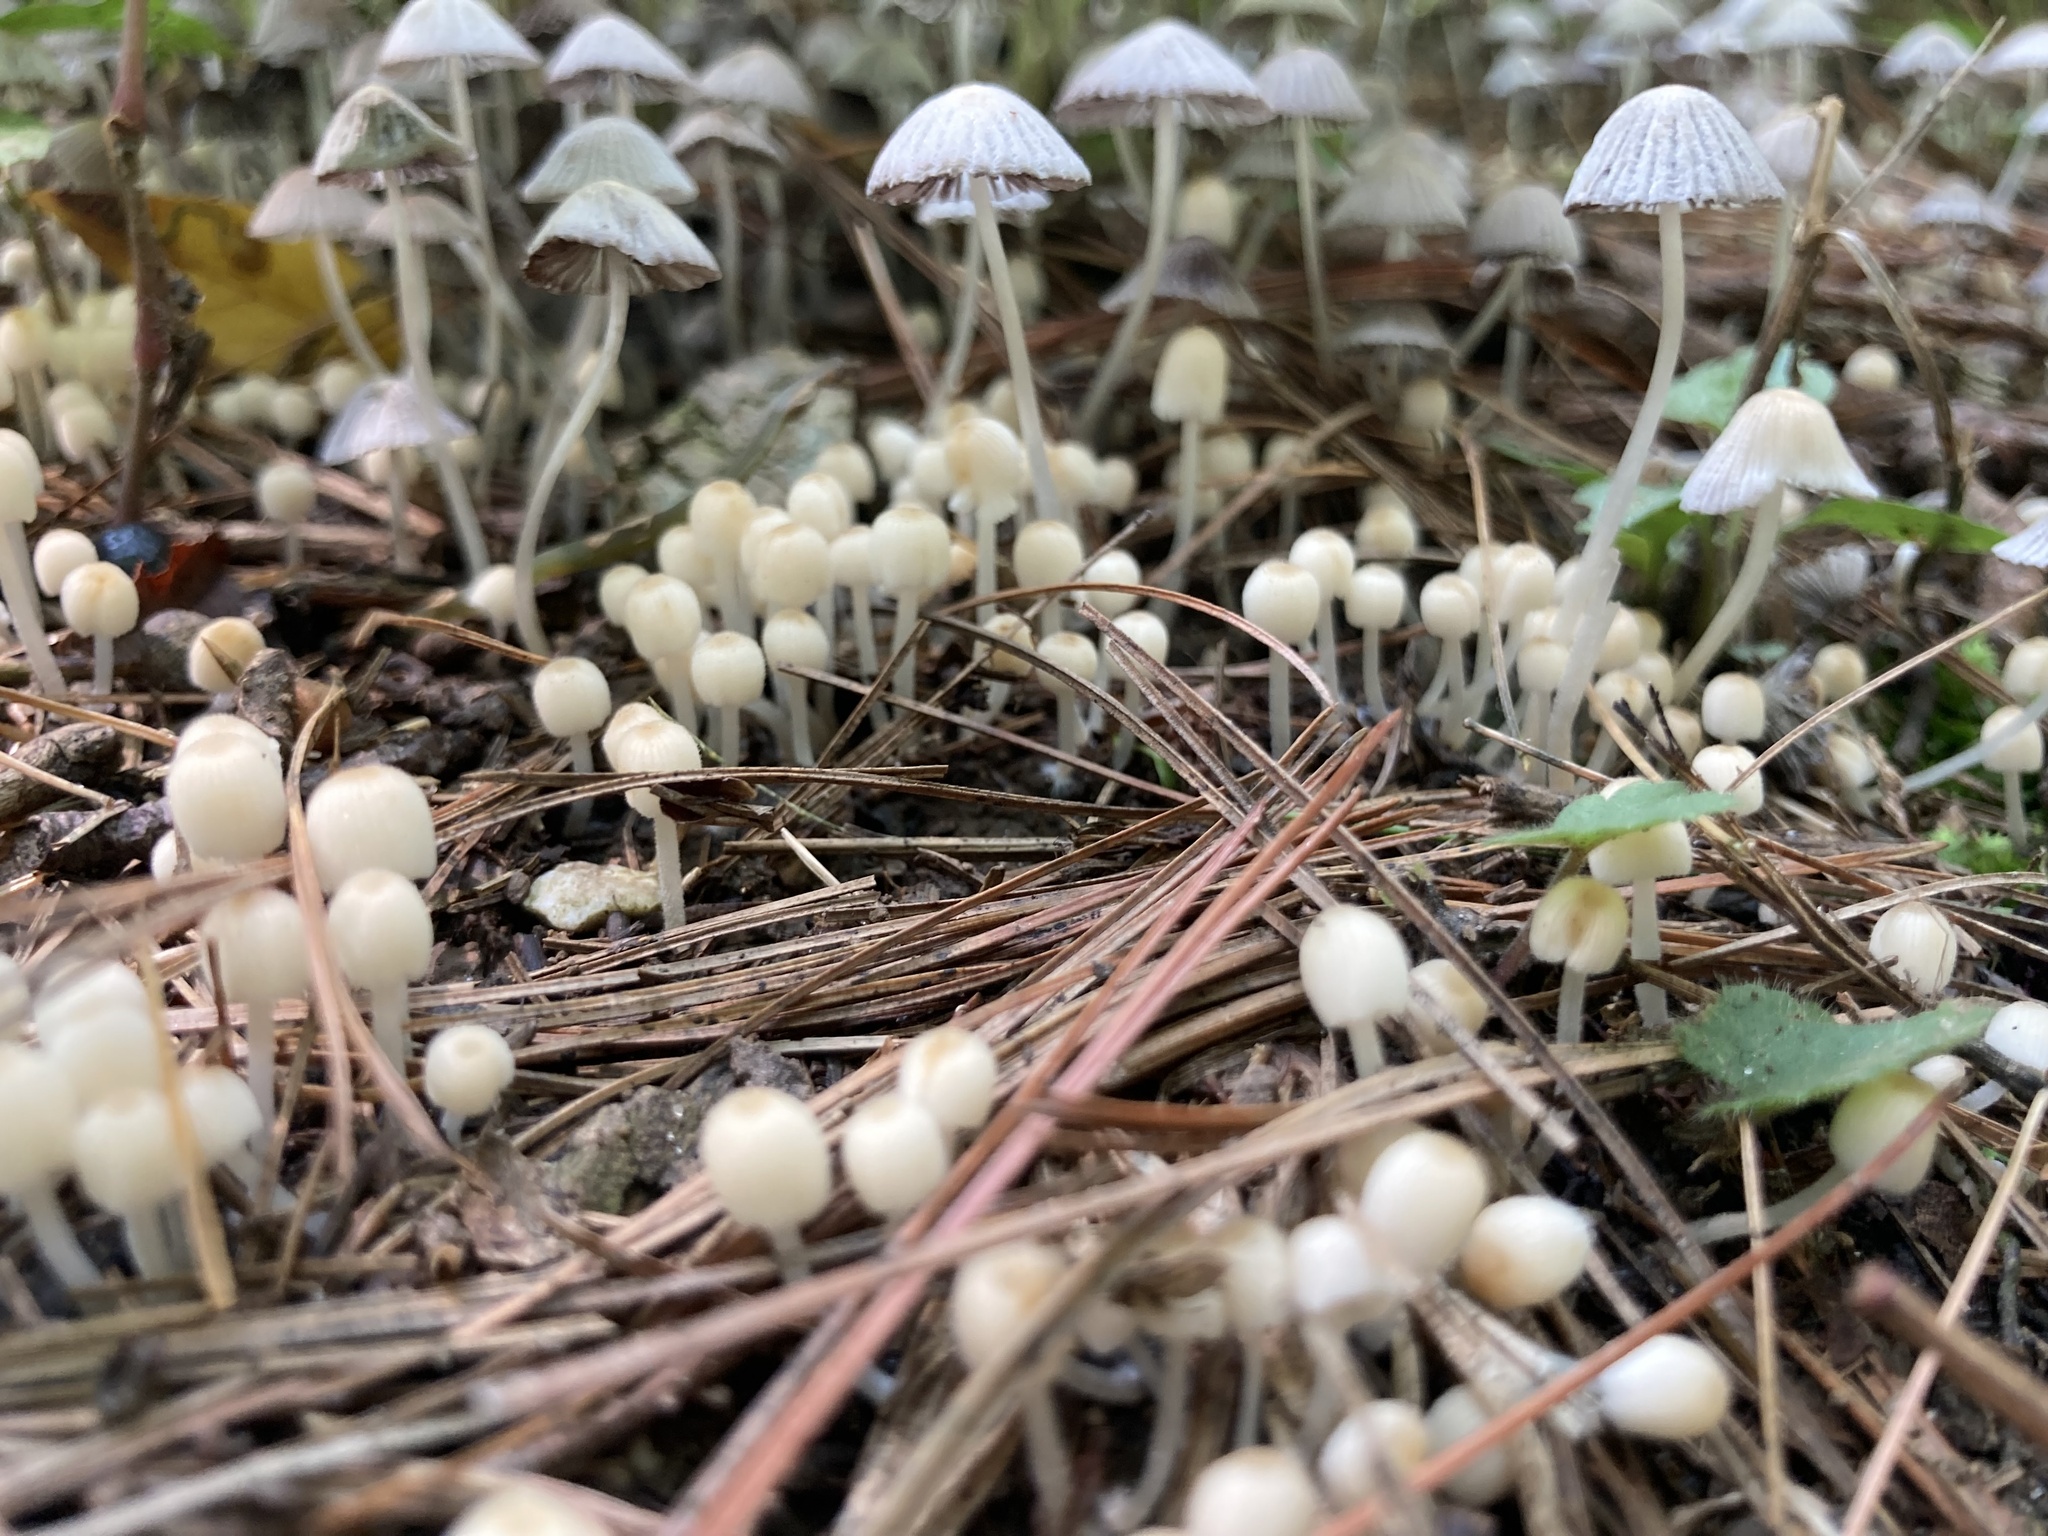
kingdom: Fungi
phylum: Basidiomycota
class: Agaricomycetes
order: Agaricales
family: Psathyrellaceae
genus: Coprinellus
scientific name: Coprinellus disseminatus
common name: Fairies' bonnets
